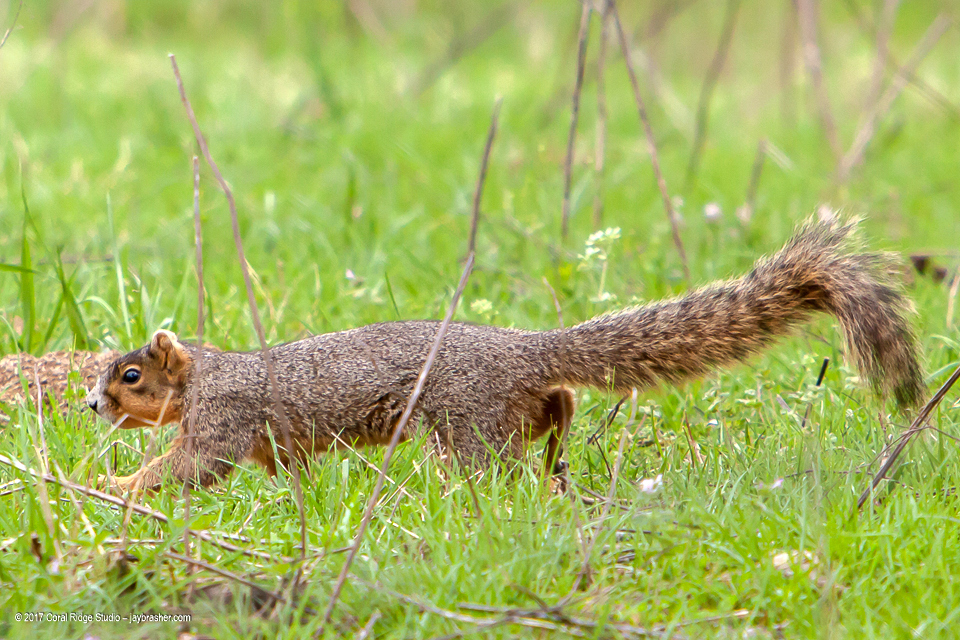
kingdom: Animalia
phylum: Chordata
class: Mammalia
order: Rodentia
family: Sciuridae
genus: Sciurus
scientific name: Sciurus niger
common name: Fox squirrel
